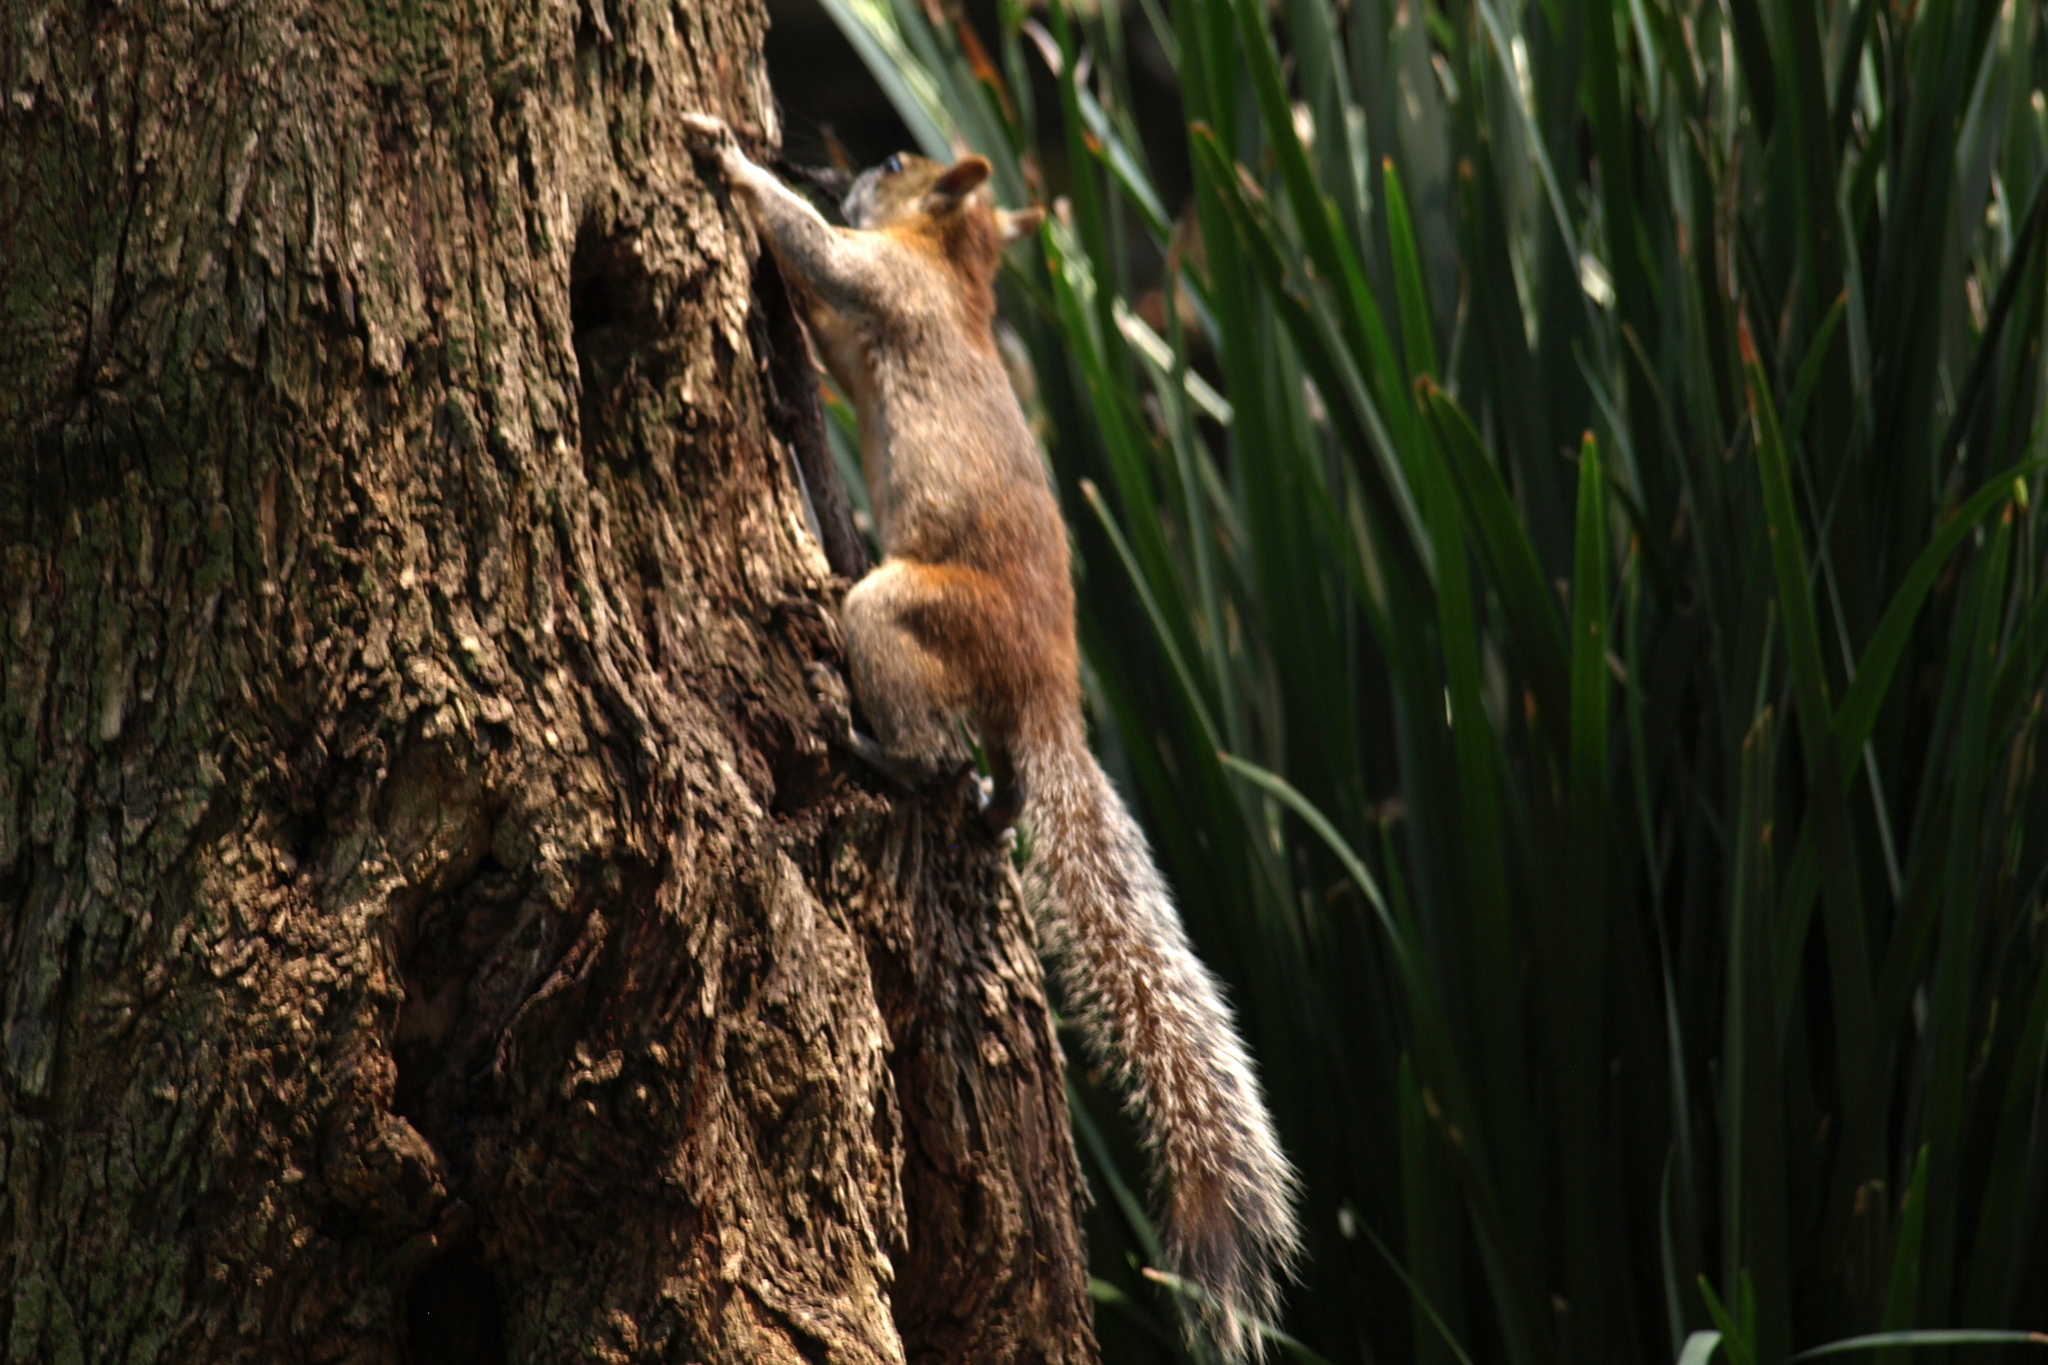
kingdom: Animalia
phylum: Chordata
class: Mammalia
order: Rodentia
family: Sciuridae
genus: Sciurus
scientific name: Sciurus aureogaster
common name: Red-bellied squirrel
